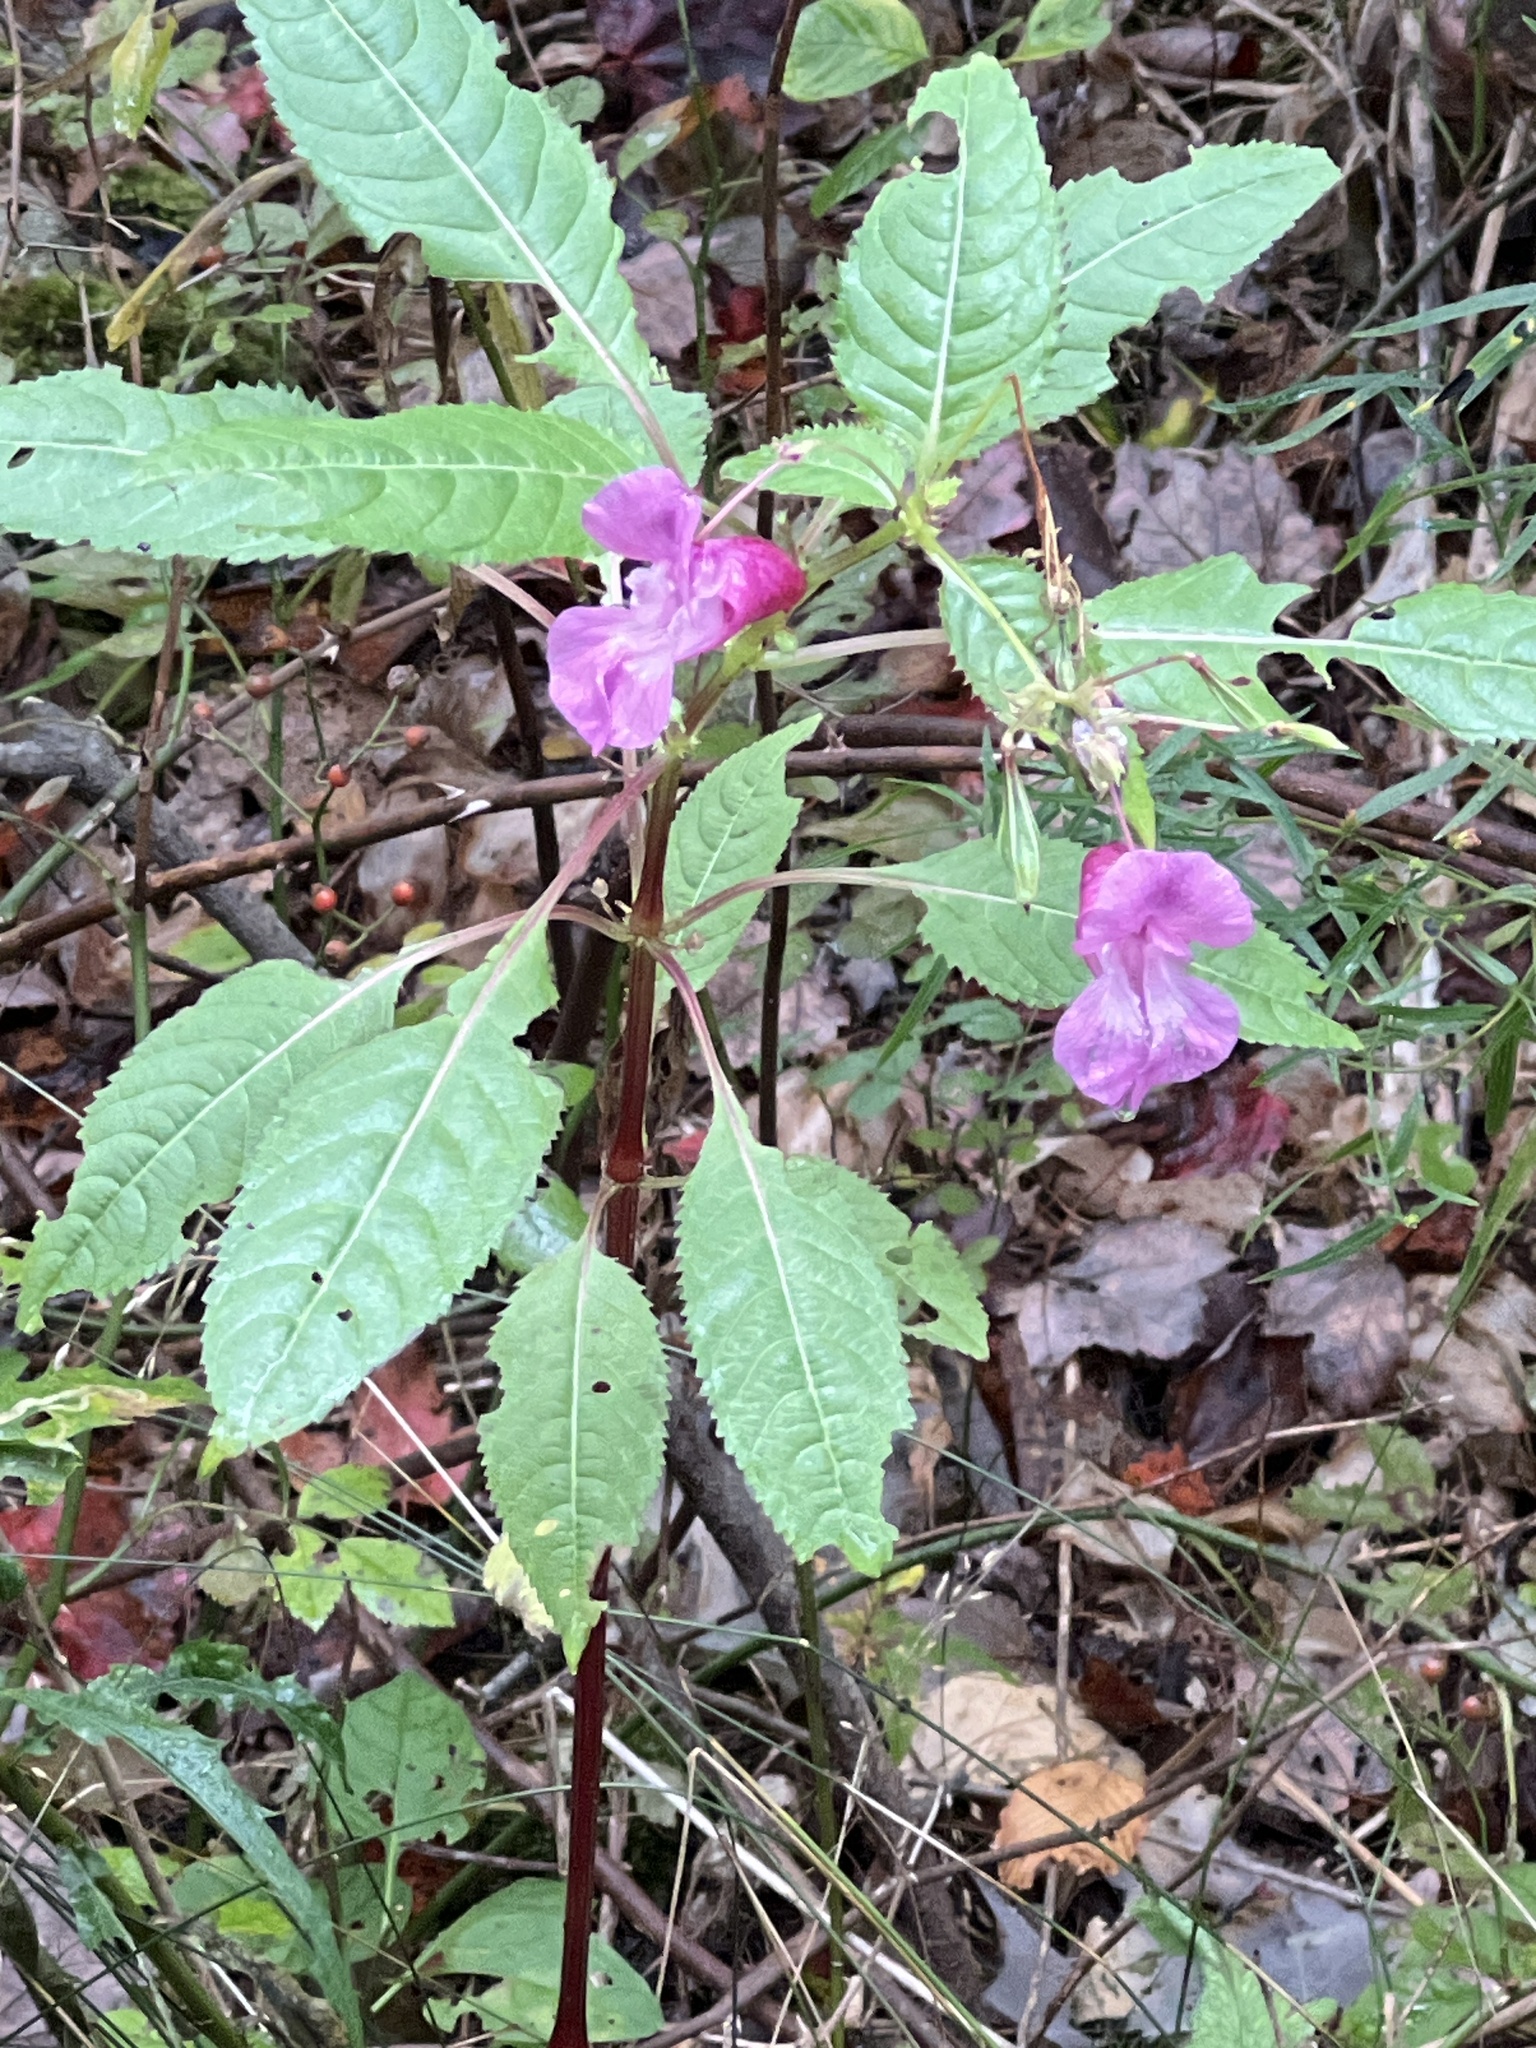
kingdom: Plantae
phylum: Tracheophyta
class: Magnoliopsida
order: Ericales
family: Balsaminaceae
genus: Impatiens
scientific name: Impatiens glandulifera
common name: Himalayan balsam
